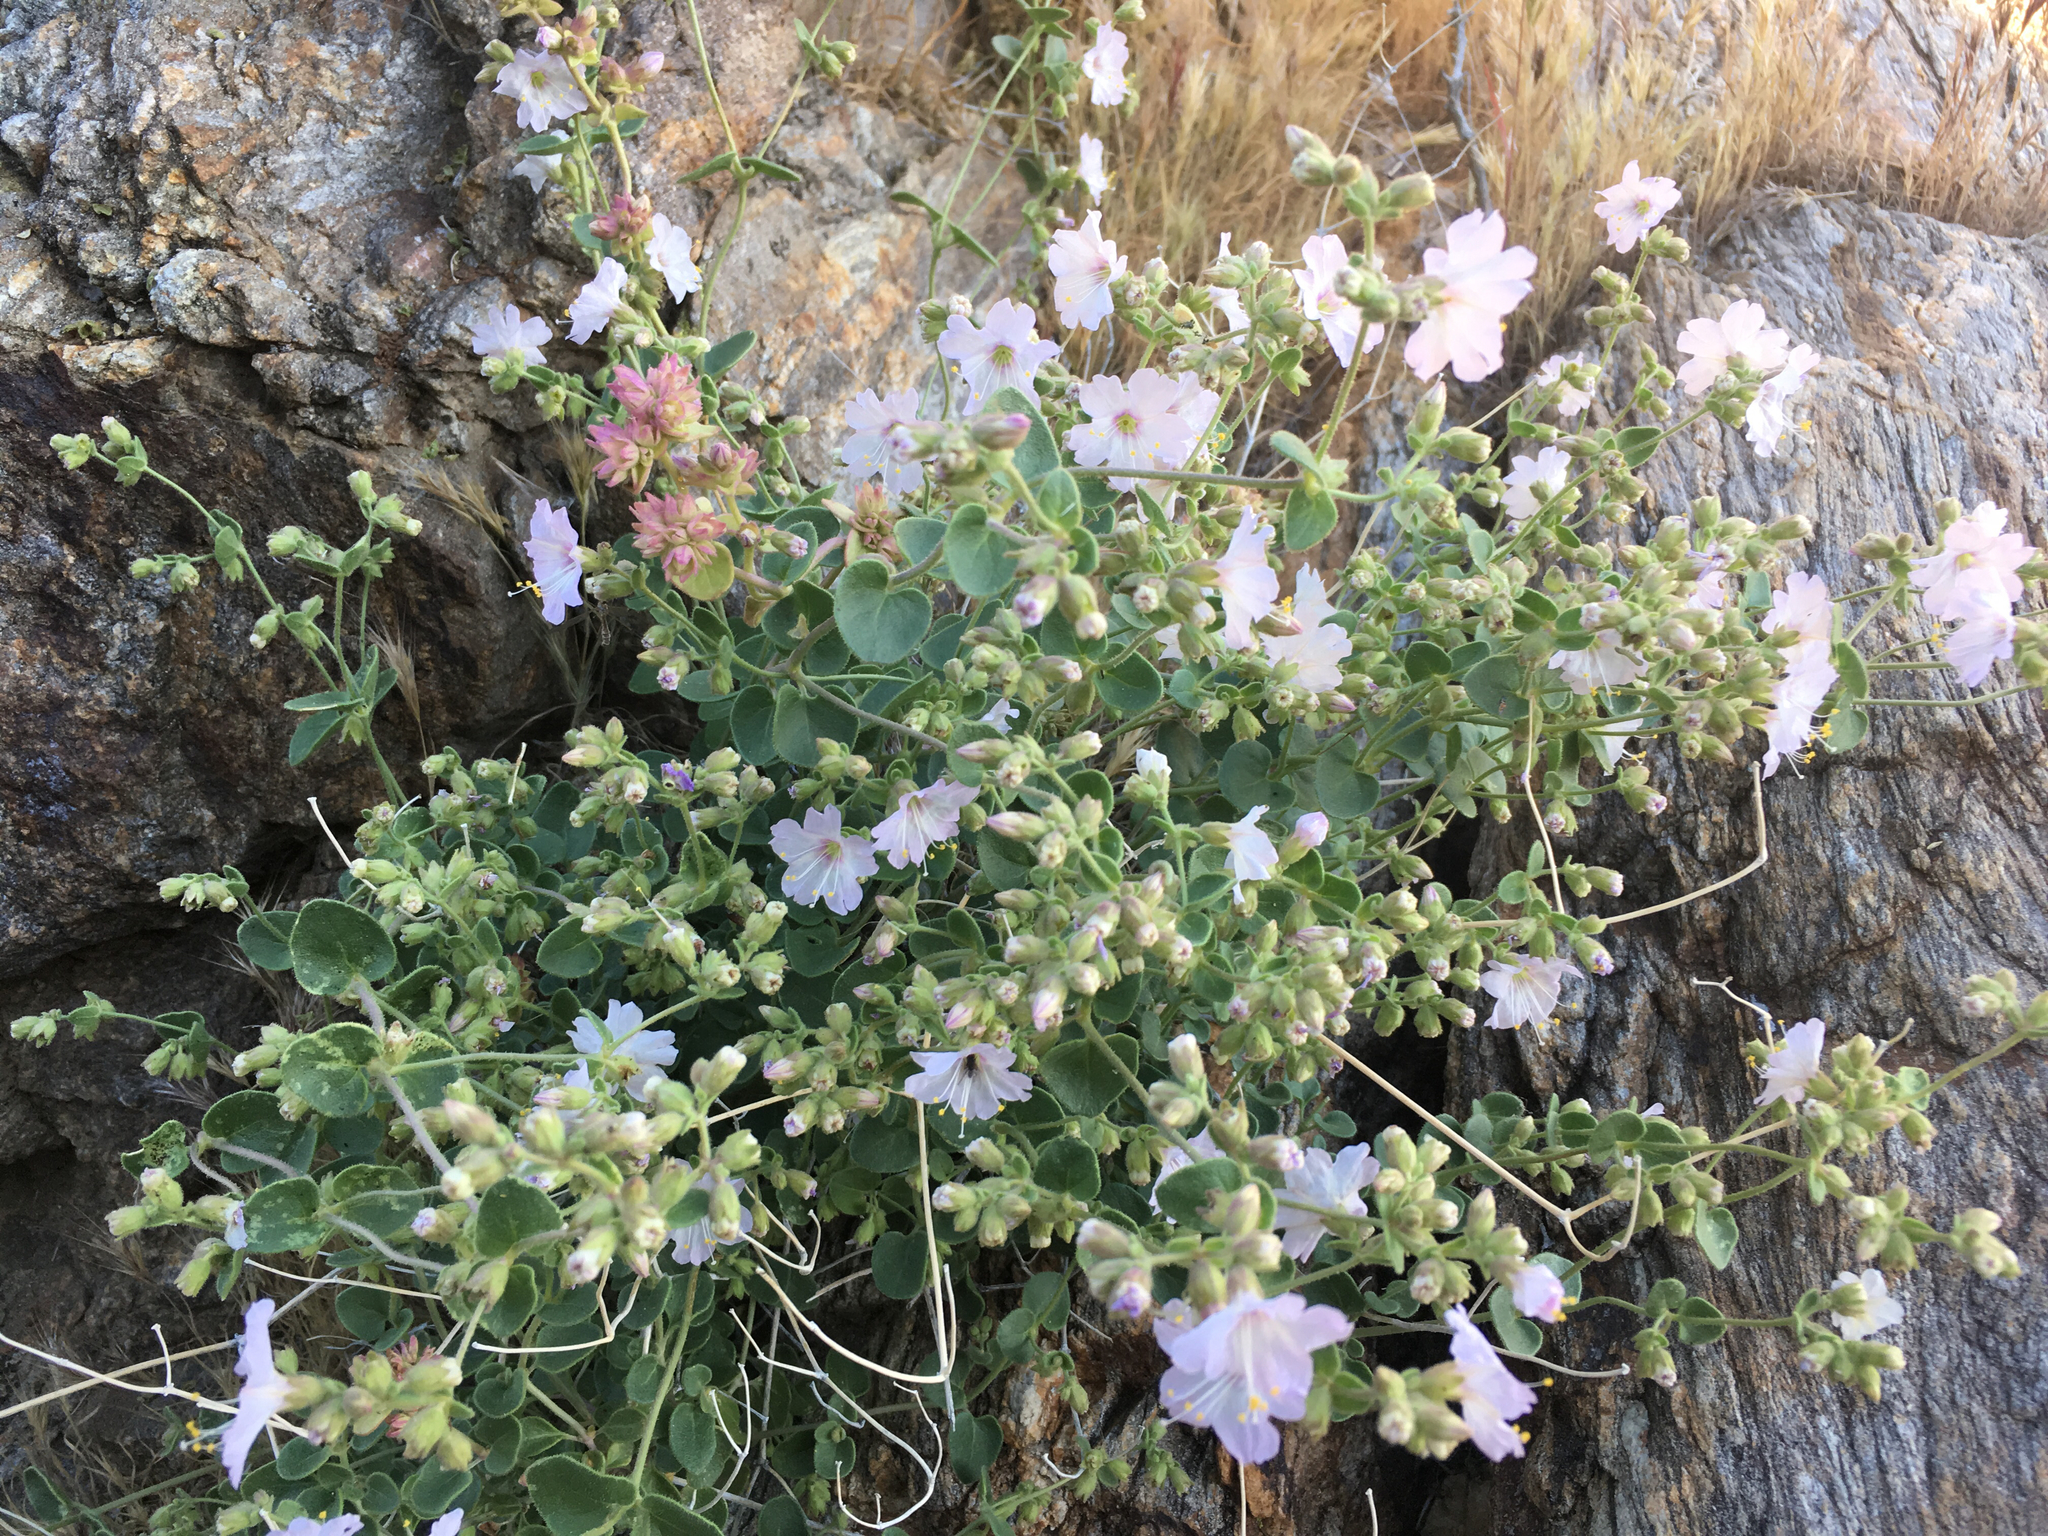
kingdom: Plantae
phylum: Tracheophyta
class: Magnoliopsida
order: Caryophyllales
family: Nyctaginaceae
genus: Mirabilis
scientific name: Mirabilis laevis
